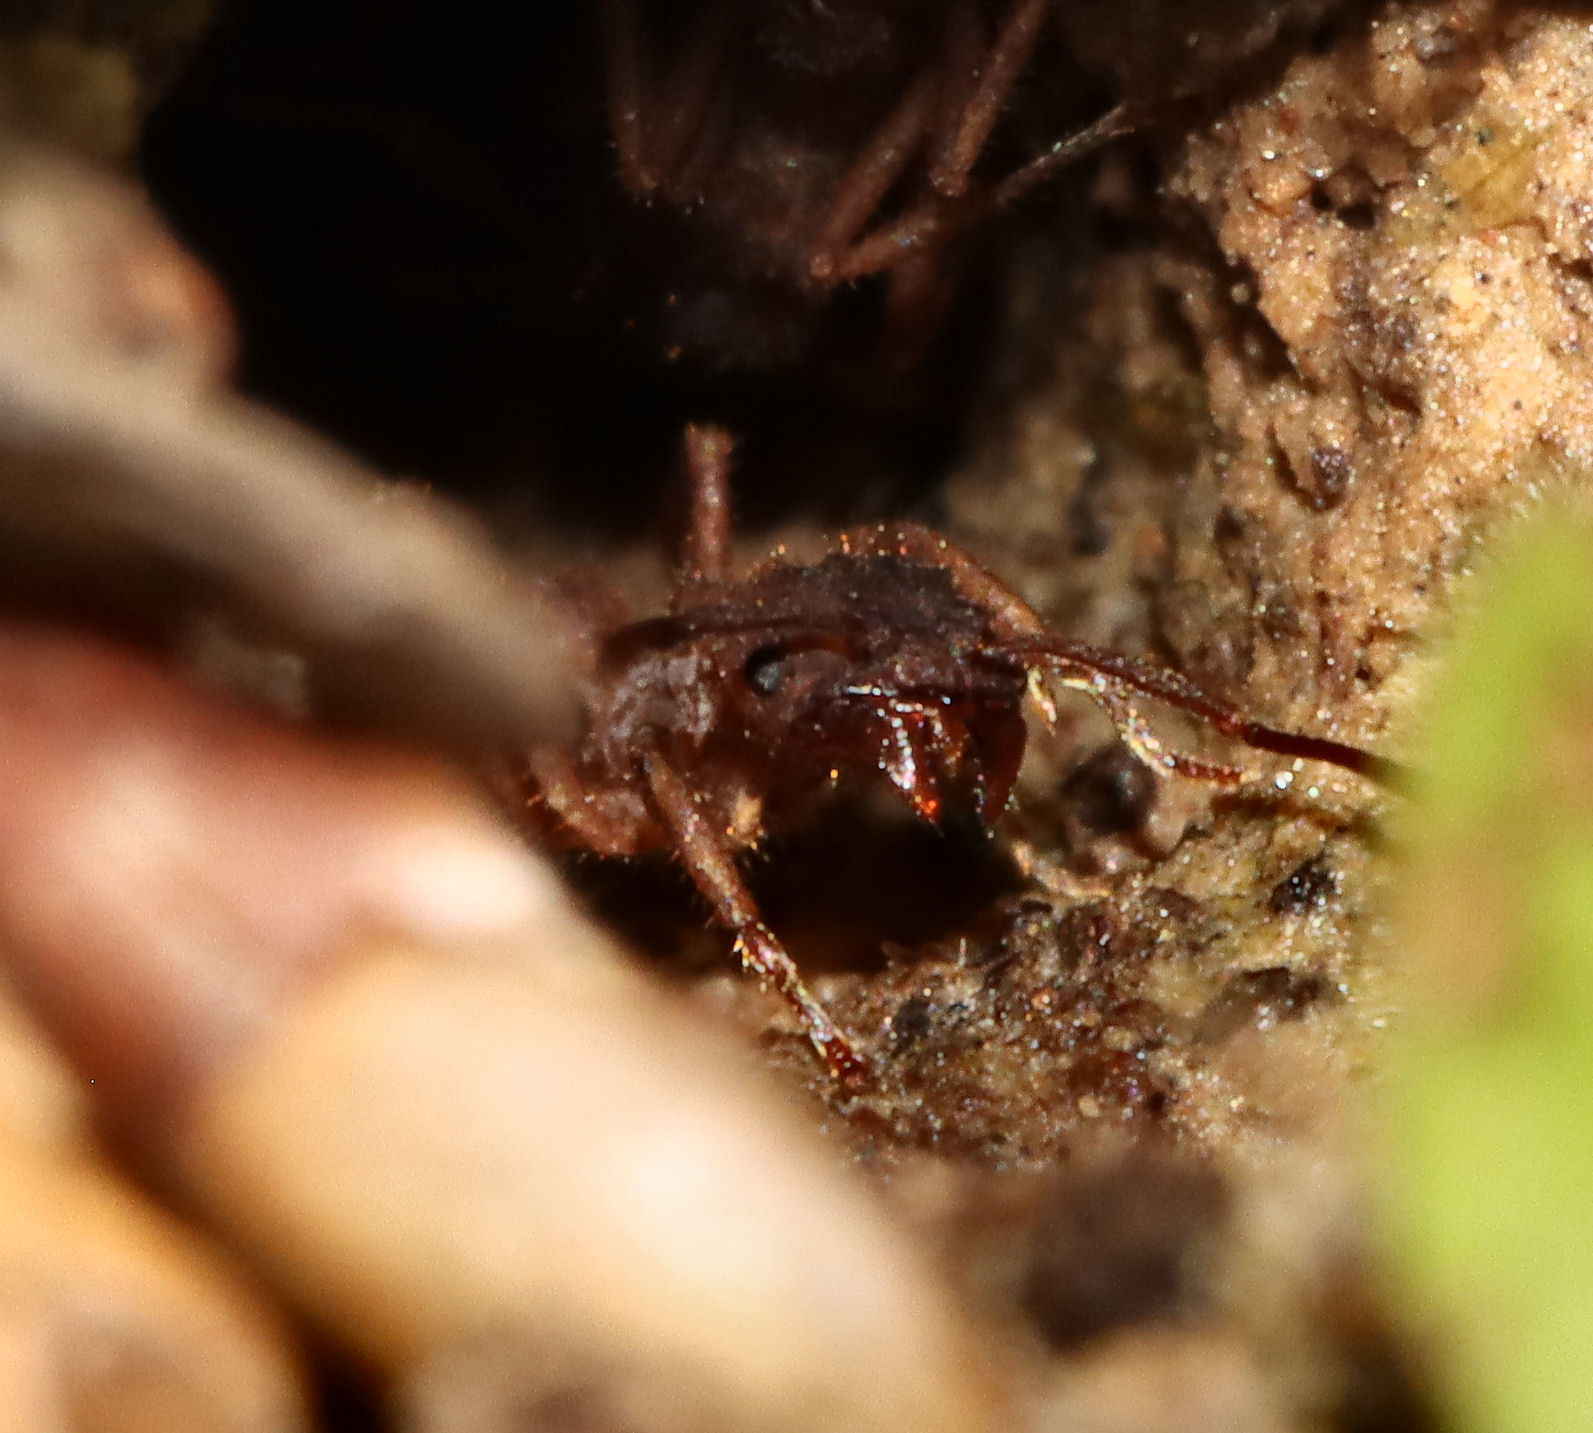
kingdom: Animalia
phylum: Arthropoda
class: Insecta
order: Hymenoptera
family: Formicidae
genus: Trachymyrmex
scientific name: Trachymyrmex septentrionalis
